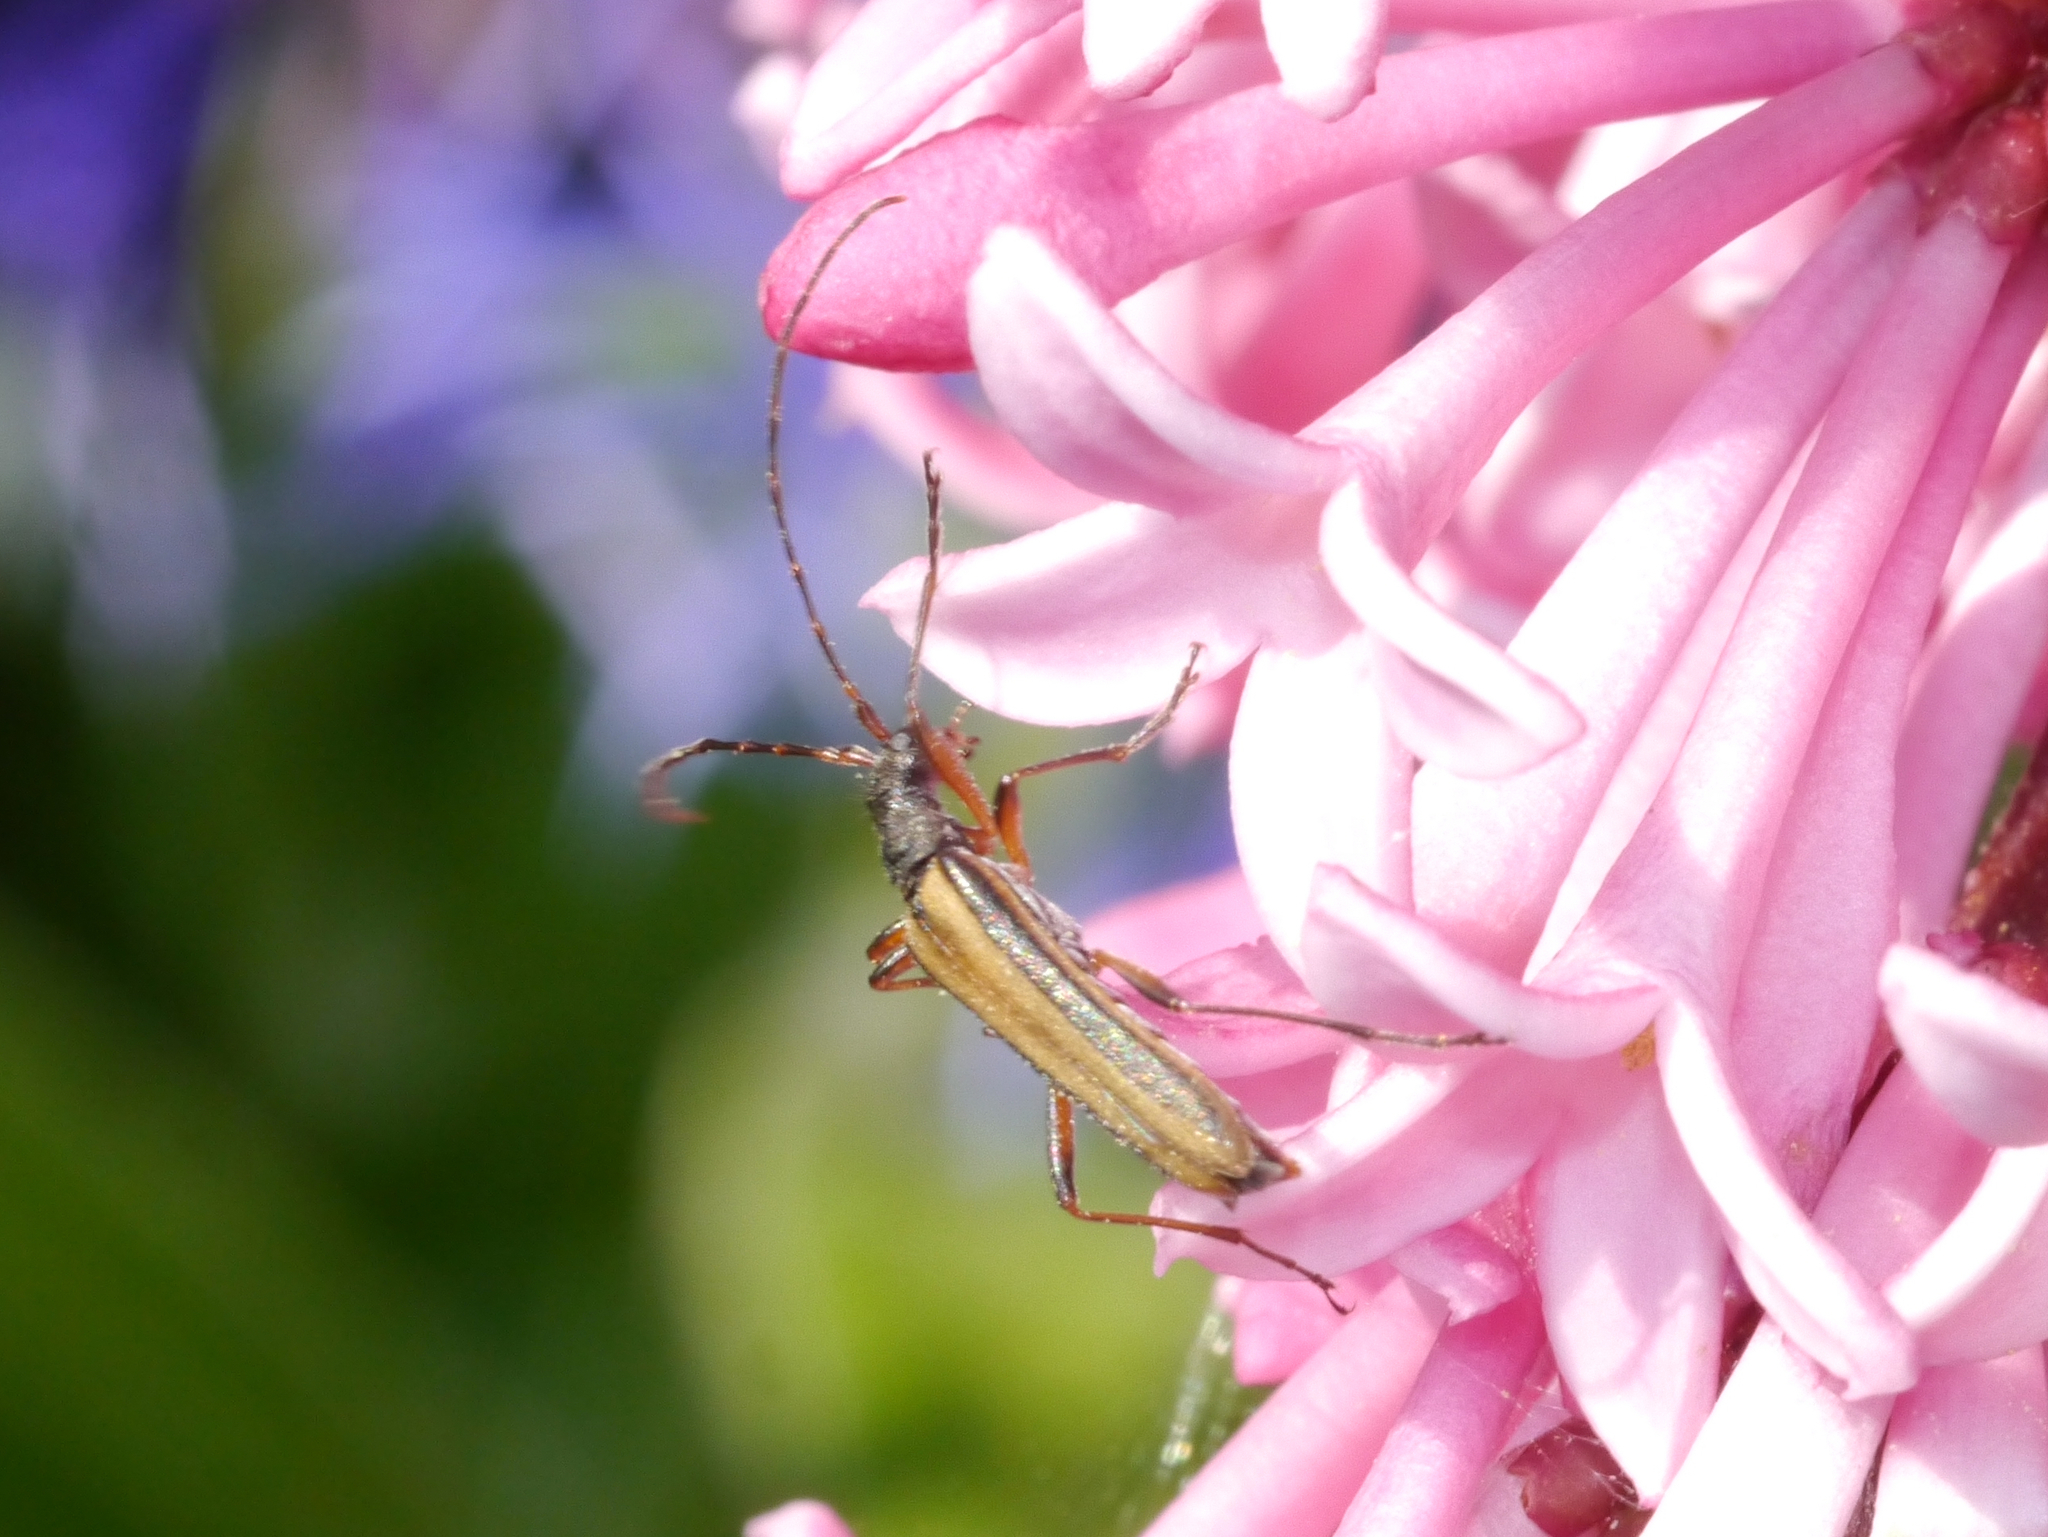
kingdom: Animalia
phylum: Arthropoda
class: Insecta
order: Coleoptera
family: Cerambycidae
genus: Leptalia
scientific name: Leptalia macilenta
